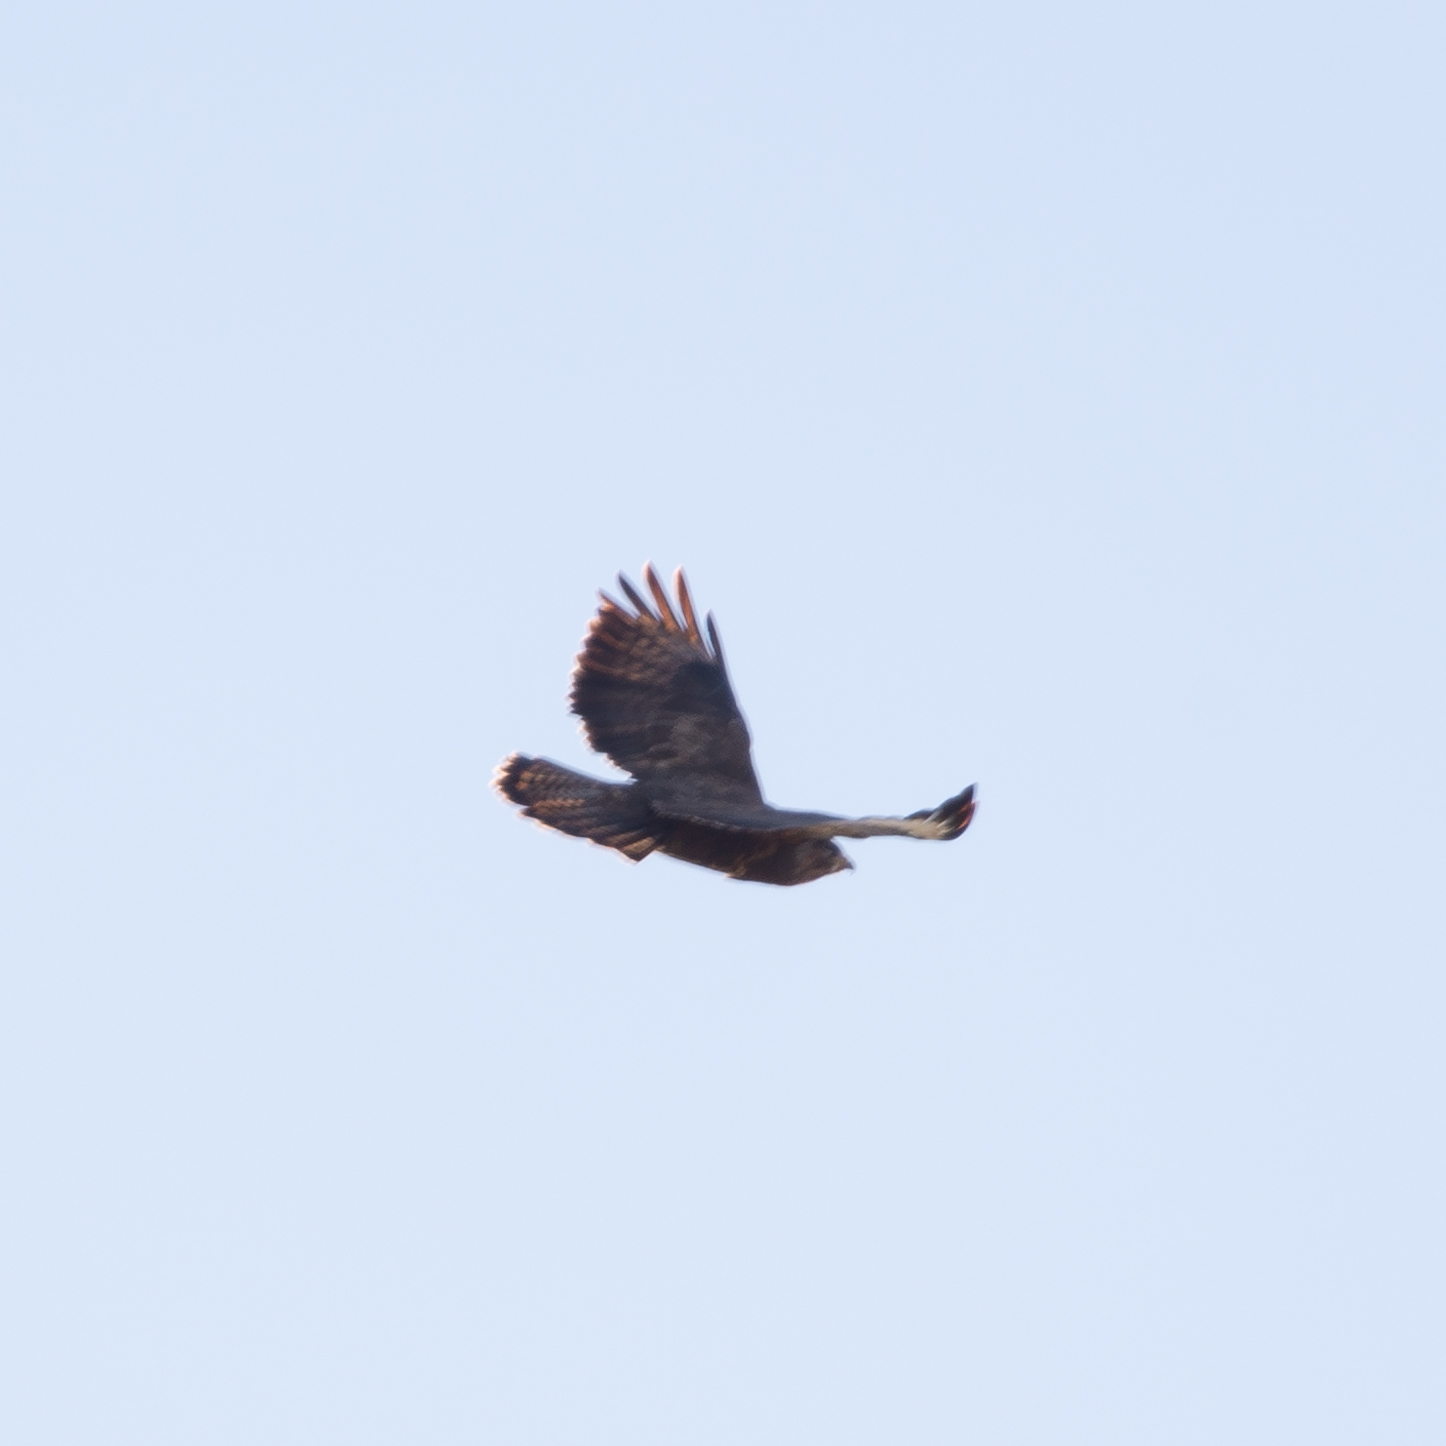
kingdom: Animalia
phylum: Chordata
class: Aves
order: Accipitriformes
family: Accipitridae
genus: Buteo
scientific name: Buteo buteo
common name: Common buzzard
